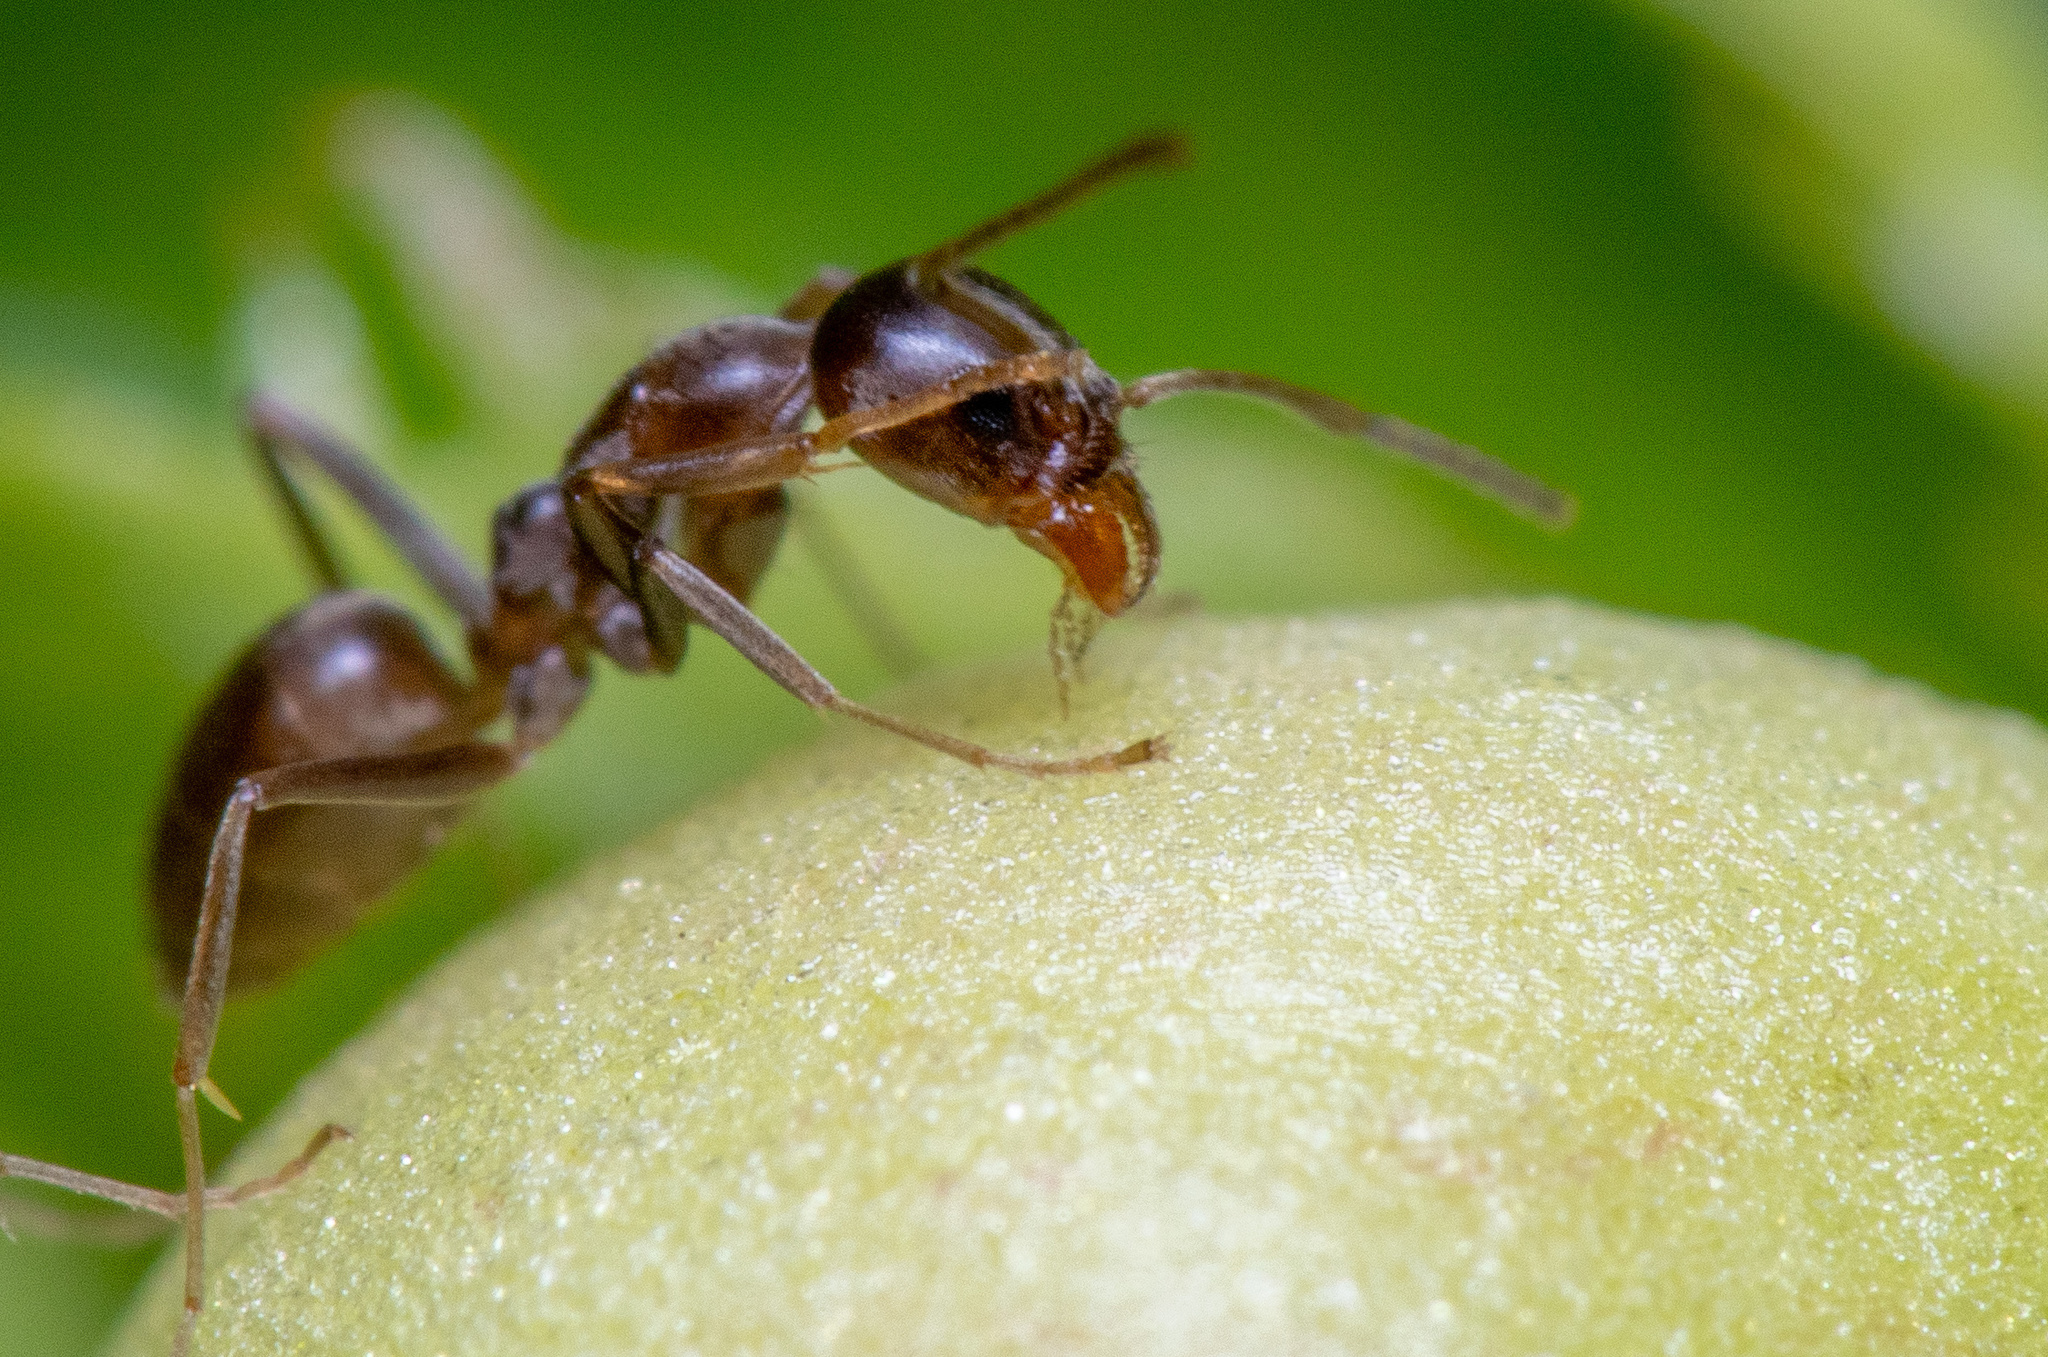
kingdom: Animalia
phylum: Arthropoda
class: Insecta
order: Hymenoptera
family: Formicidae
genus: Linepithema
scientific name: Linepithema humile
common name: Argentine ant
